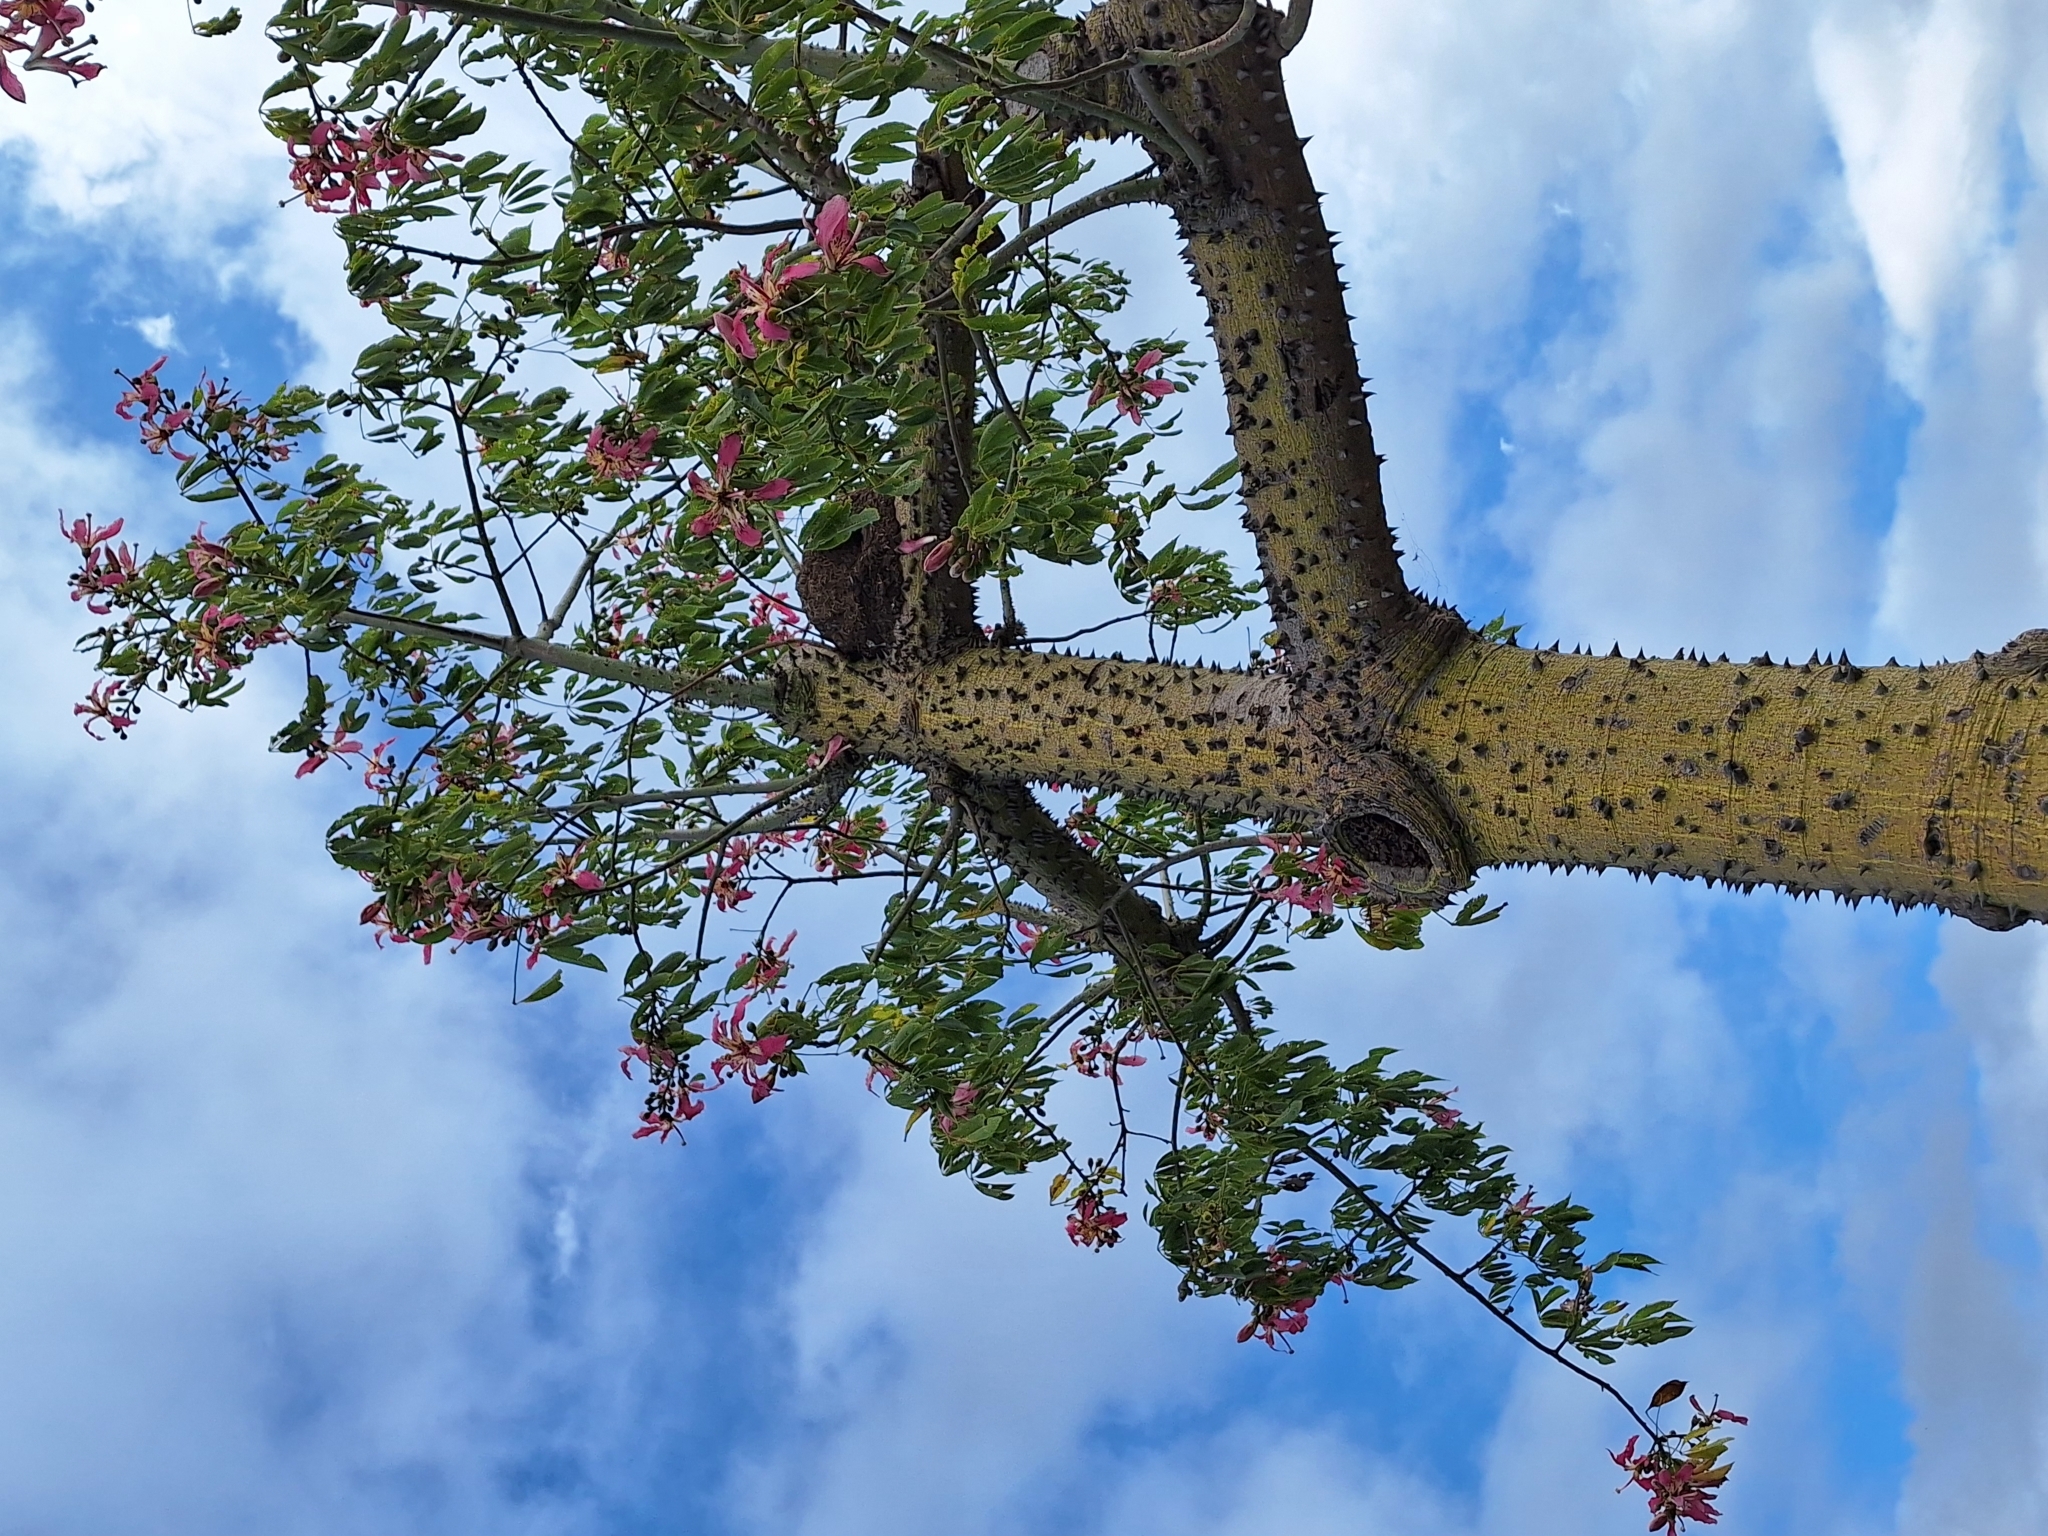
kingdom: Plantae
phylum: Tracheophyta
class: Magnoliopsida
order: Malvales
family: Malvaceae
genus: Ceiba
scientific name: Ceiba speciosa
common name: Silk-floss tree
